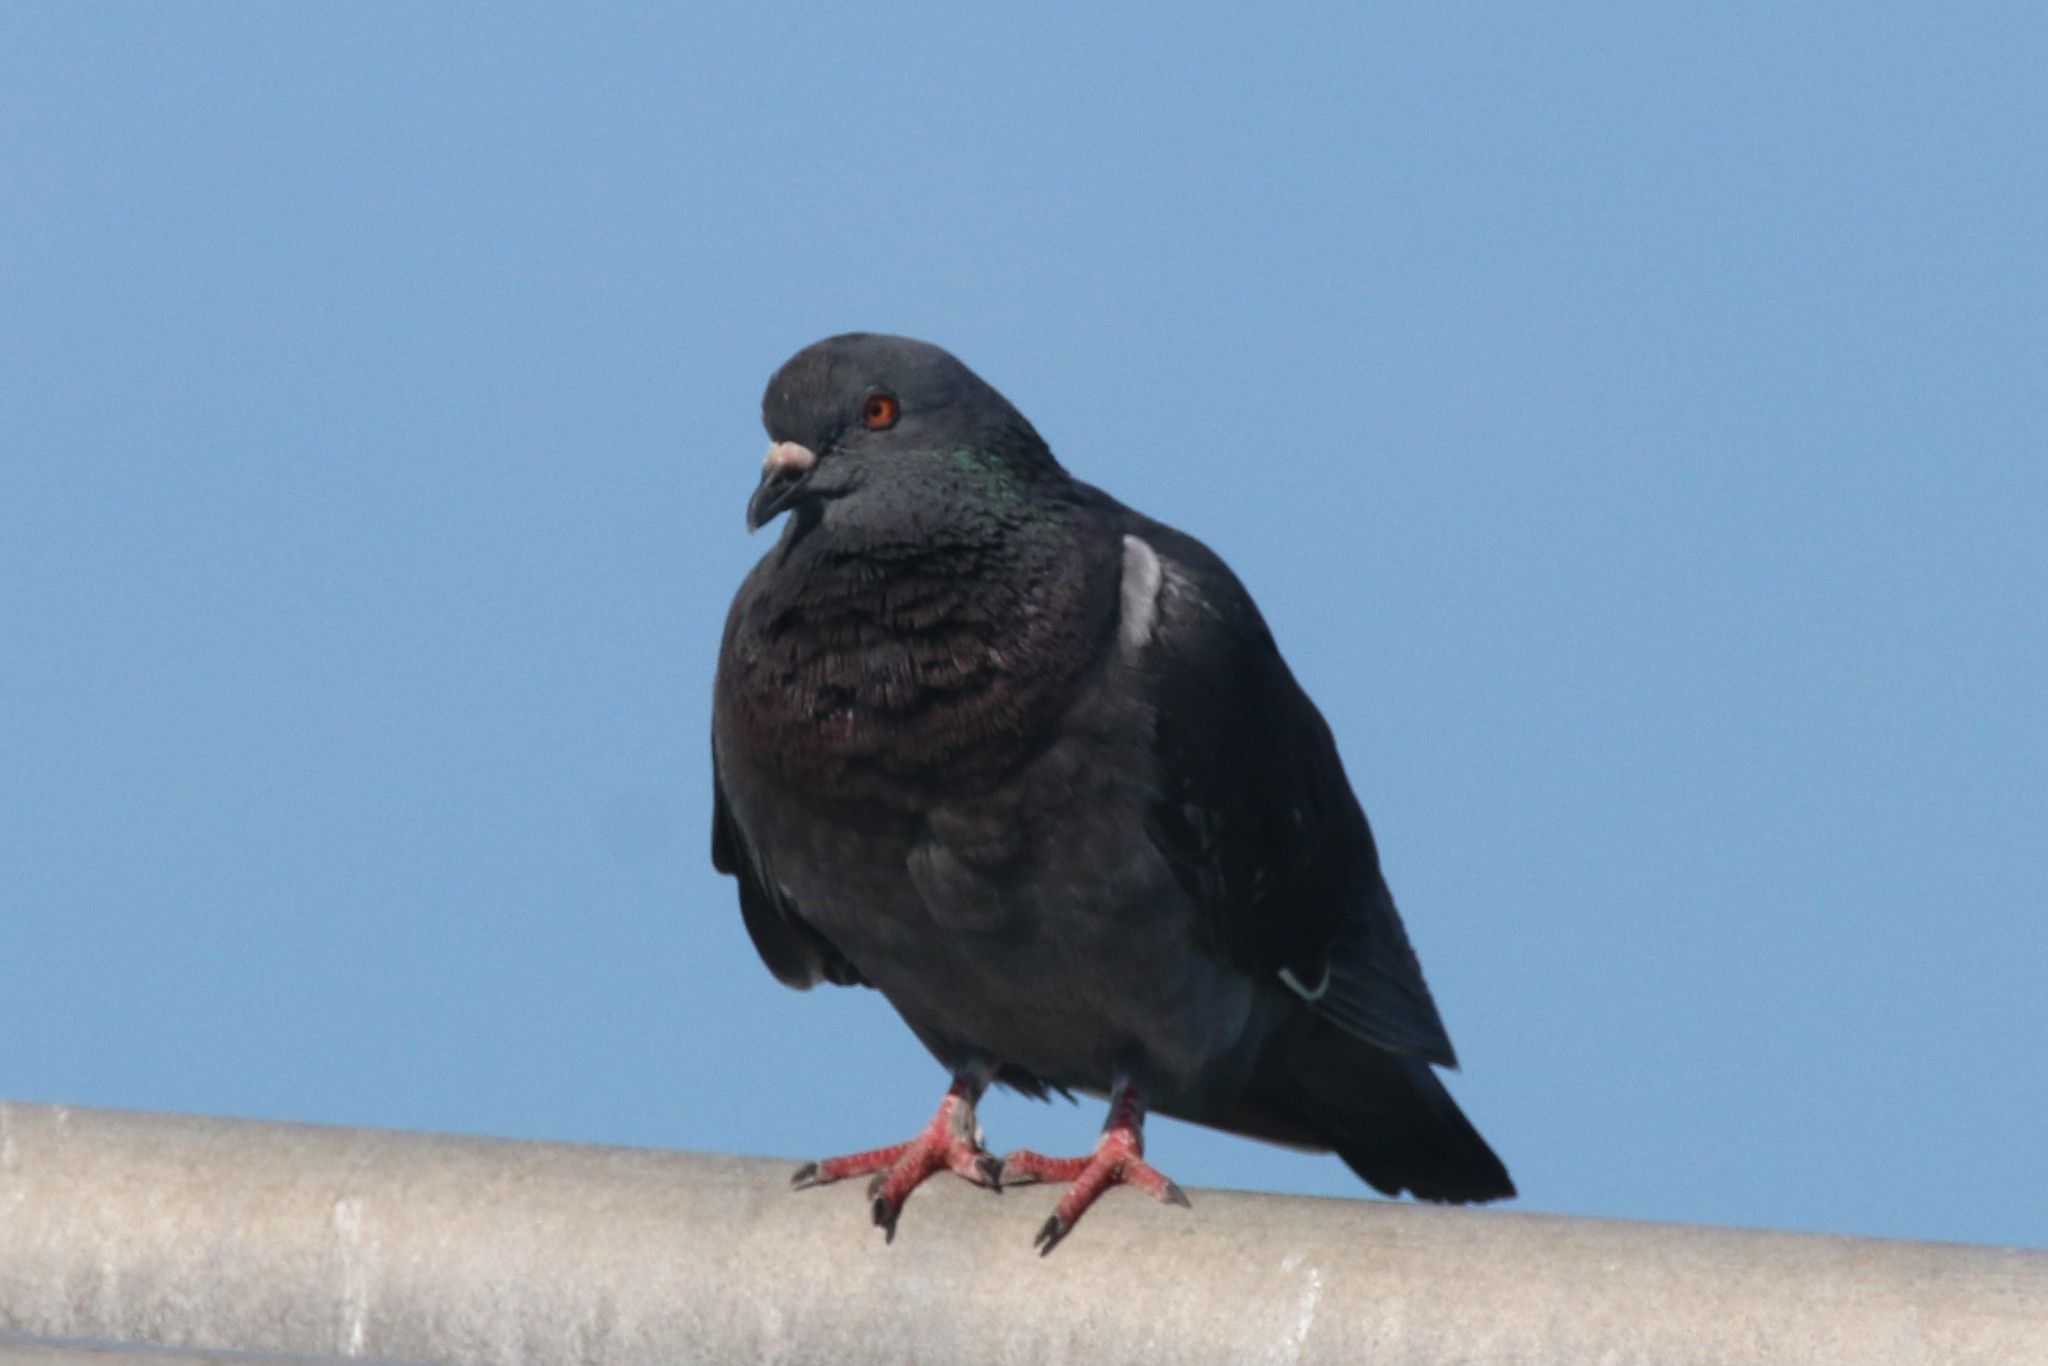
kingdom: Animalia
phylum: Chordata
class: Aves
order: Columbiformes
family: Columbidae
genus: Columba
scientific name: Columba livia
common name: Rock pigeon
